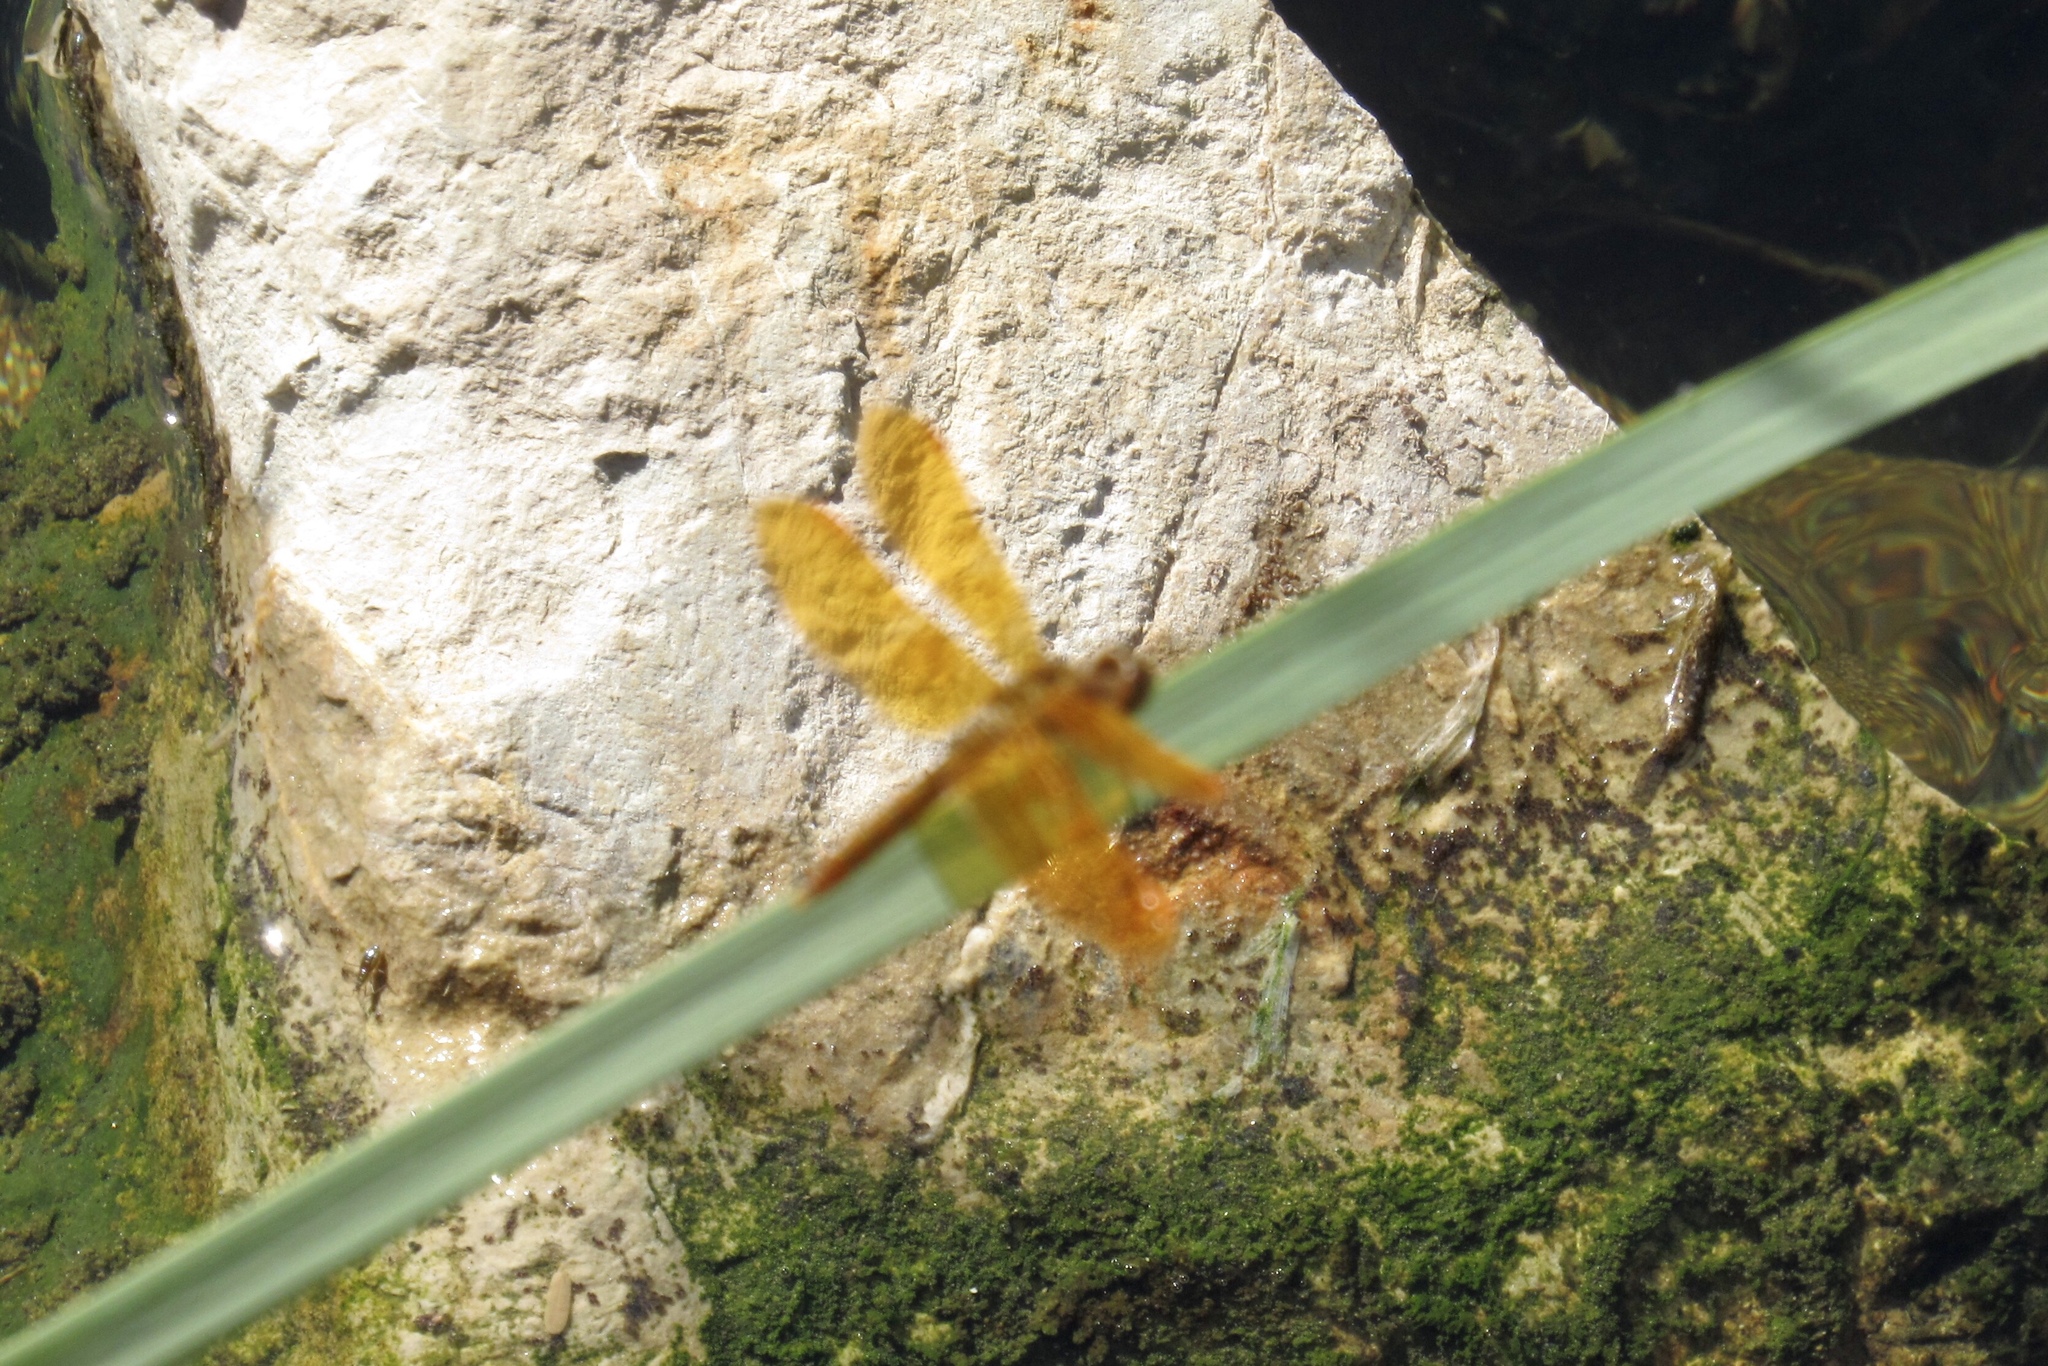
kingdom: Animalia
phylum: Arthropoda
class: Insecta
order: Odonata
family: Libellulidae
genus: Perithemis
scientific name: Perithemis intensa
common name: Mexican amberwing
